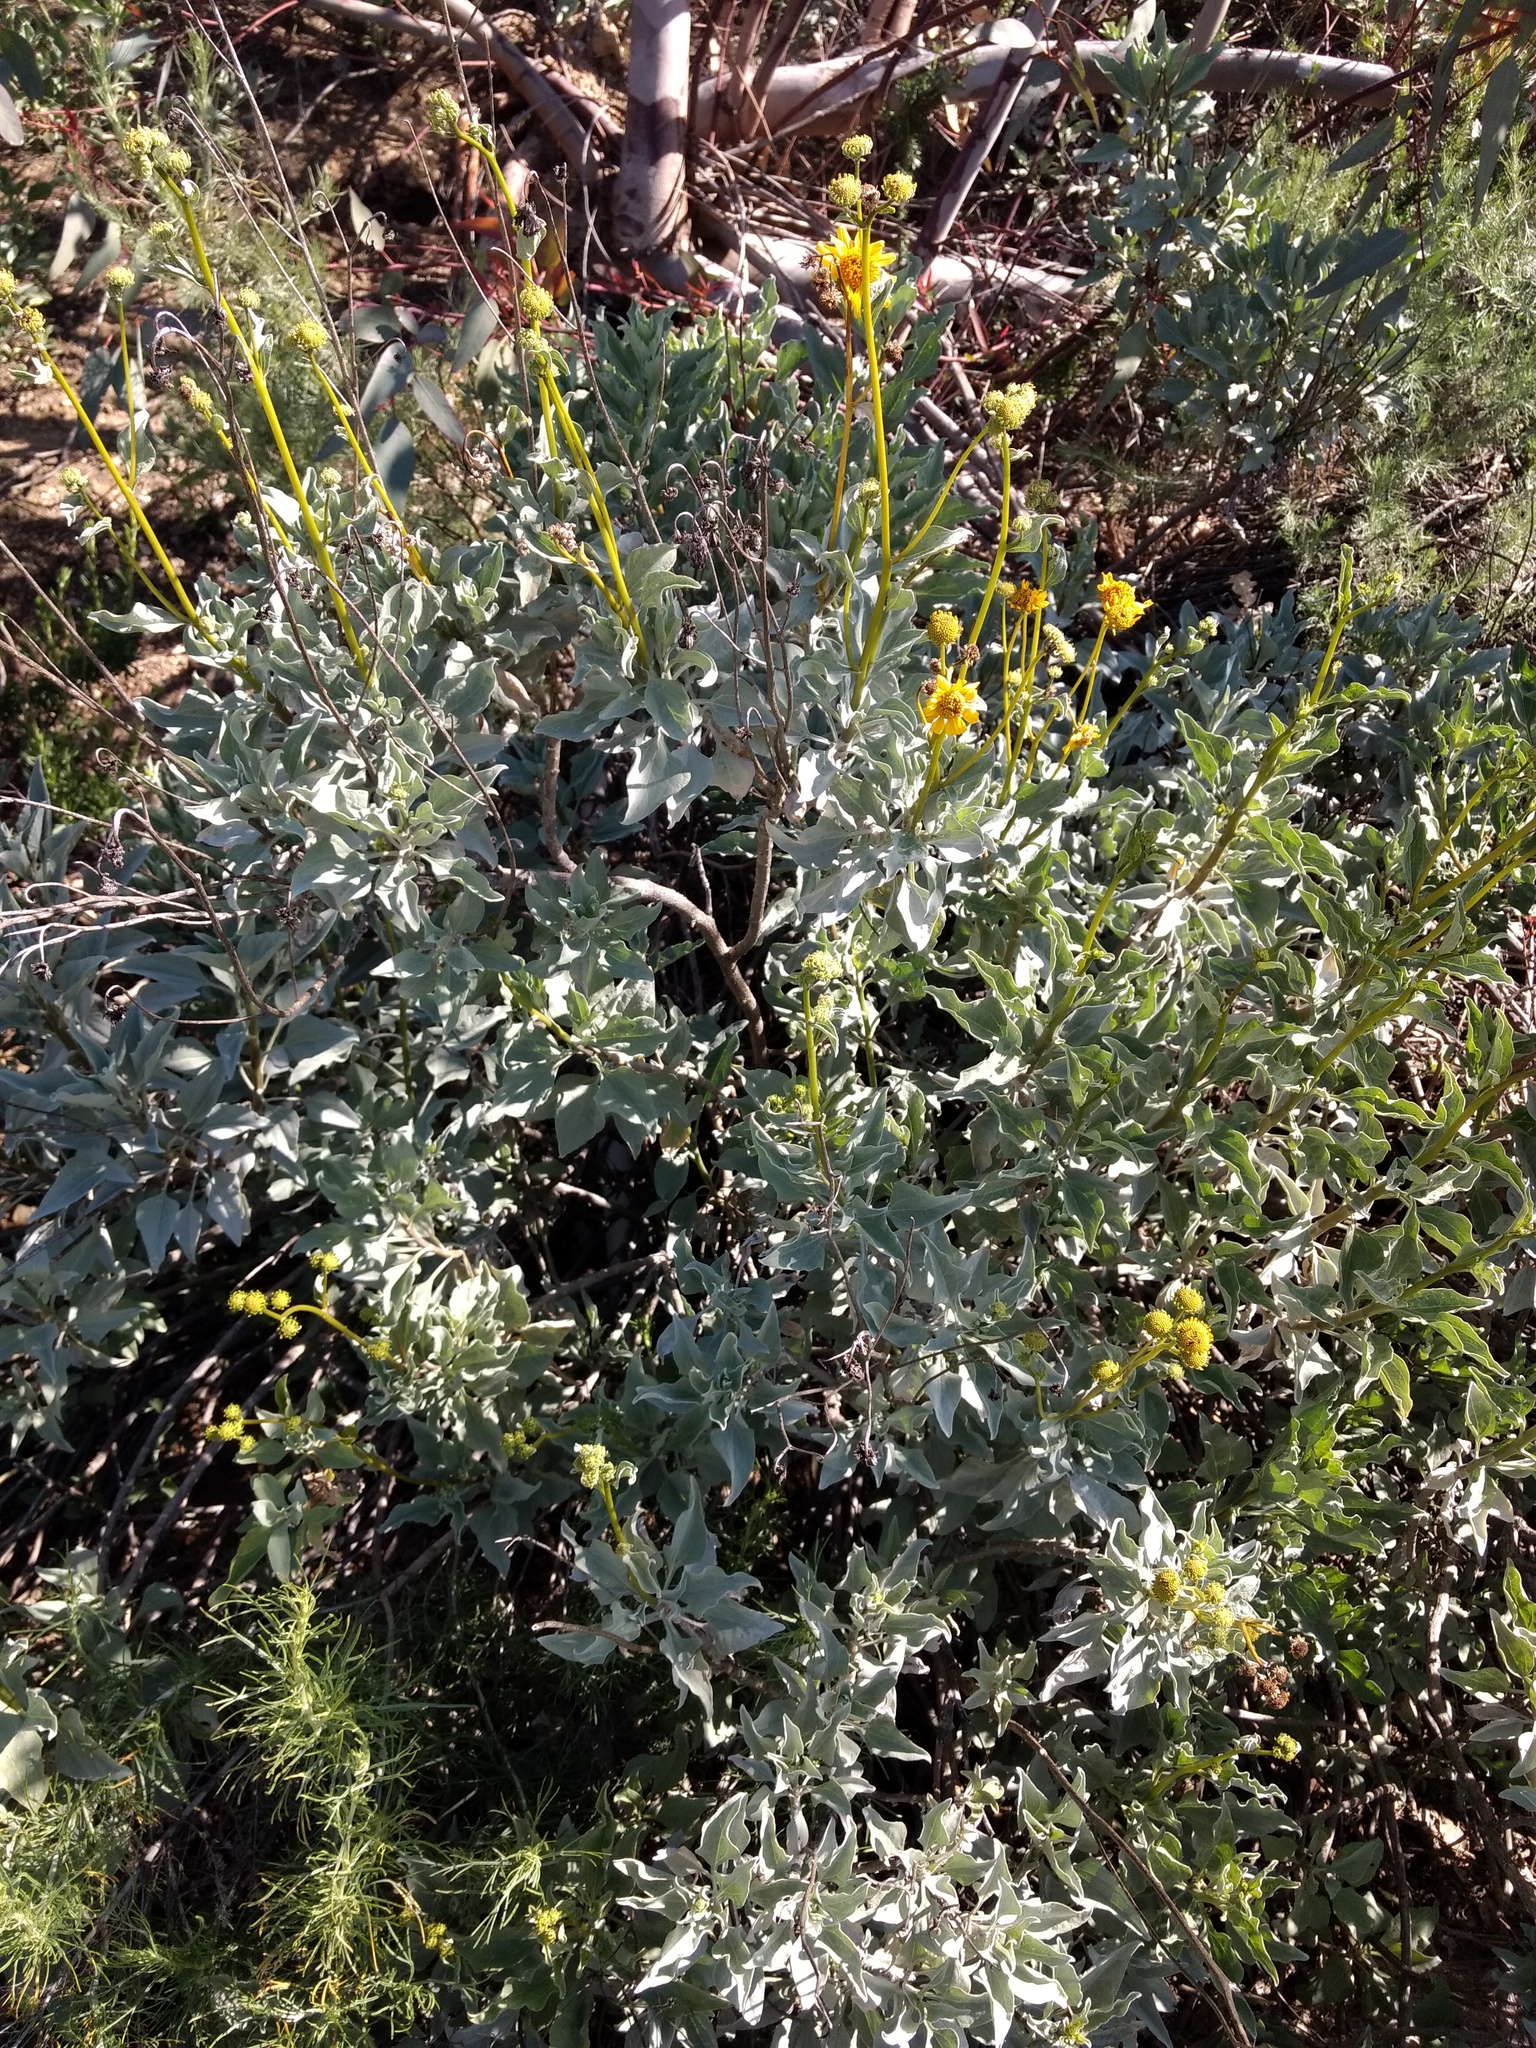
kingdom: Plantae
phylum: Tracheophyta
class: Magnoliopsida
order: Asterales
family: Asteraceae
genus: Encelia
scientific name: Encelia farinosa
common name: Brittlebush
